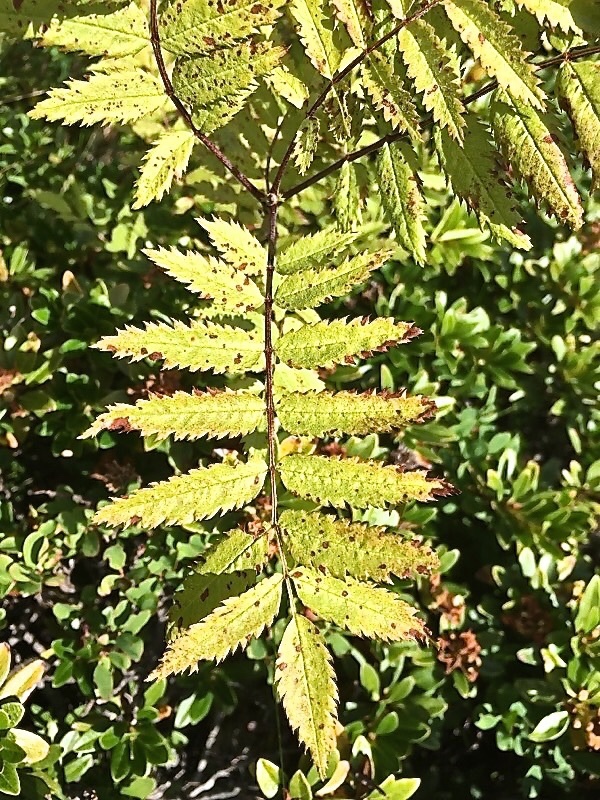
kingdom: Plantae
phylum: Tracheophyta
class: Magnoliopsida
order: Rosales
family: Rosaceae
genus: Sorbus
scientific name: Sorbus aucuparia
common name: Rowan
